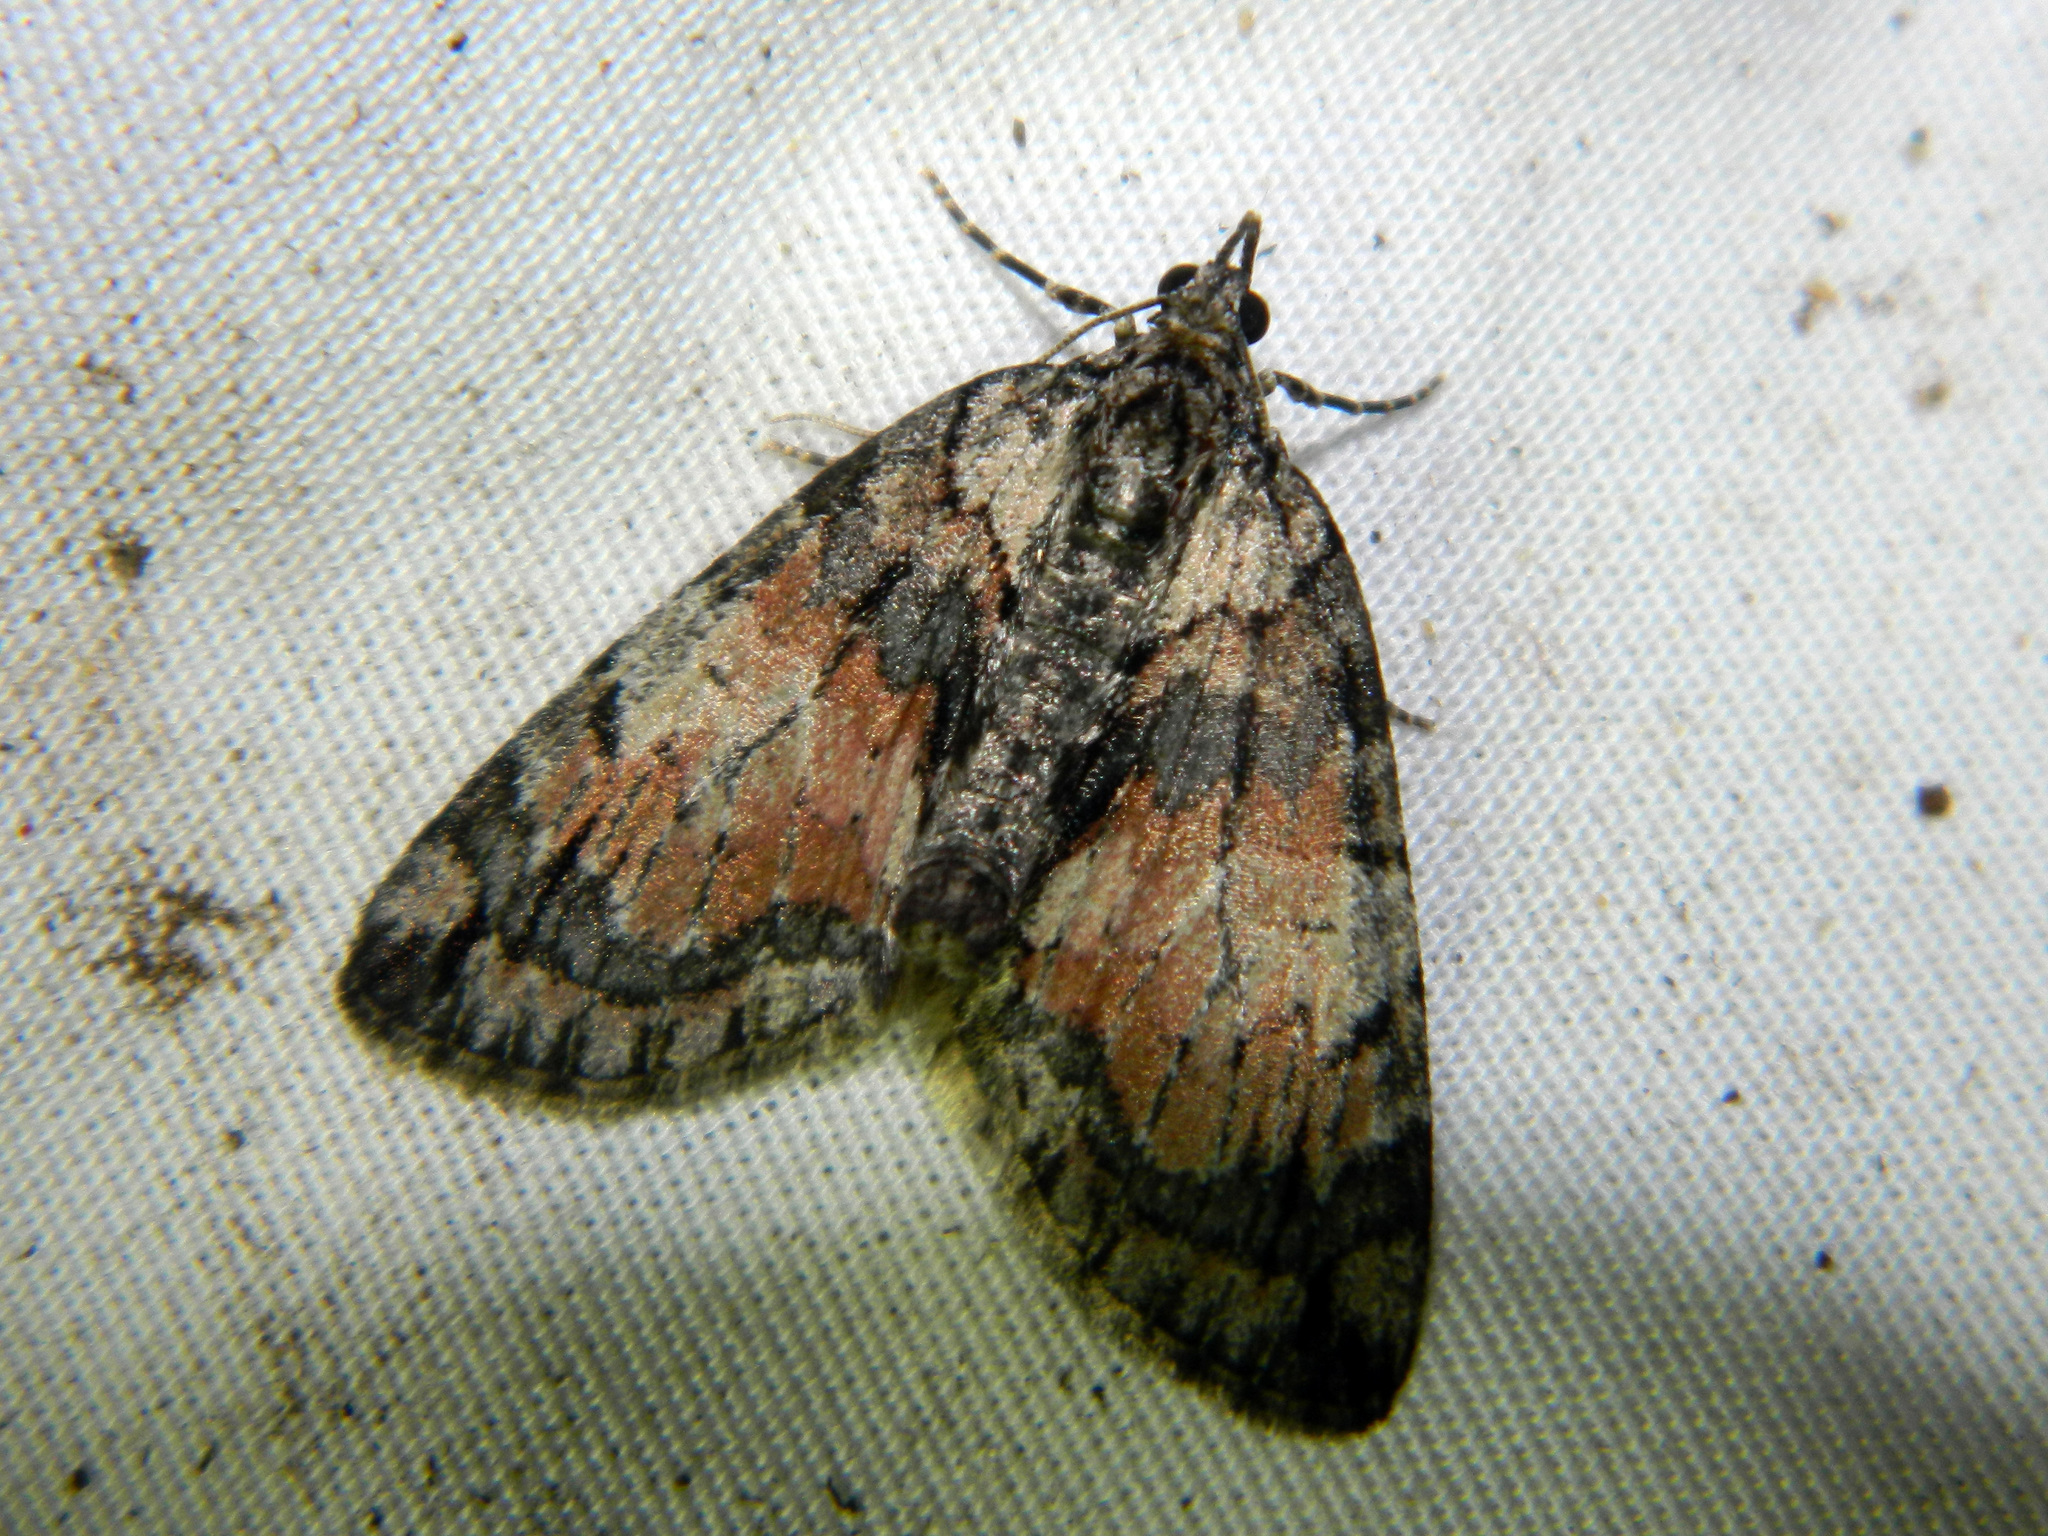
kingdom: Animalia
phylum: Arthropoda
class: Insecta
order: Lepidoptera
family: Geometridae
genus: Hydriomena
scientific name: Hydriomena perfracta
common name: Shattered hydriomena moth
